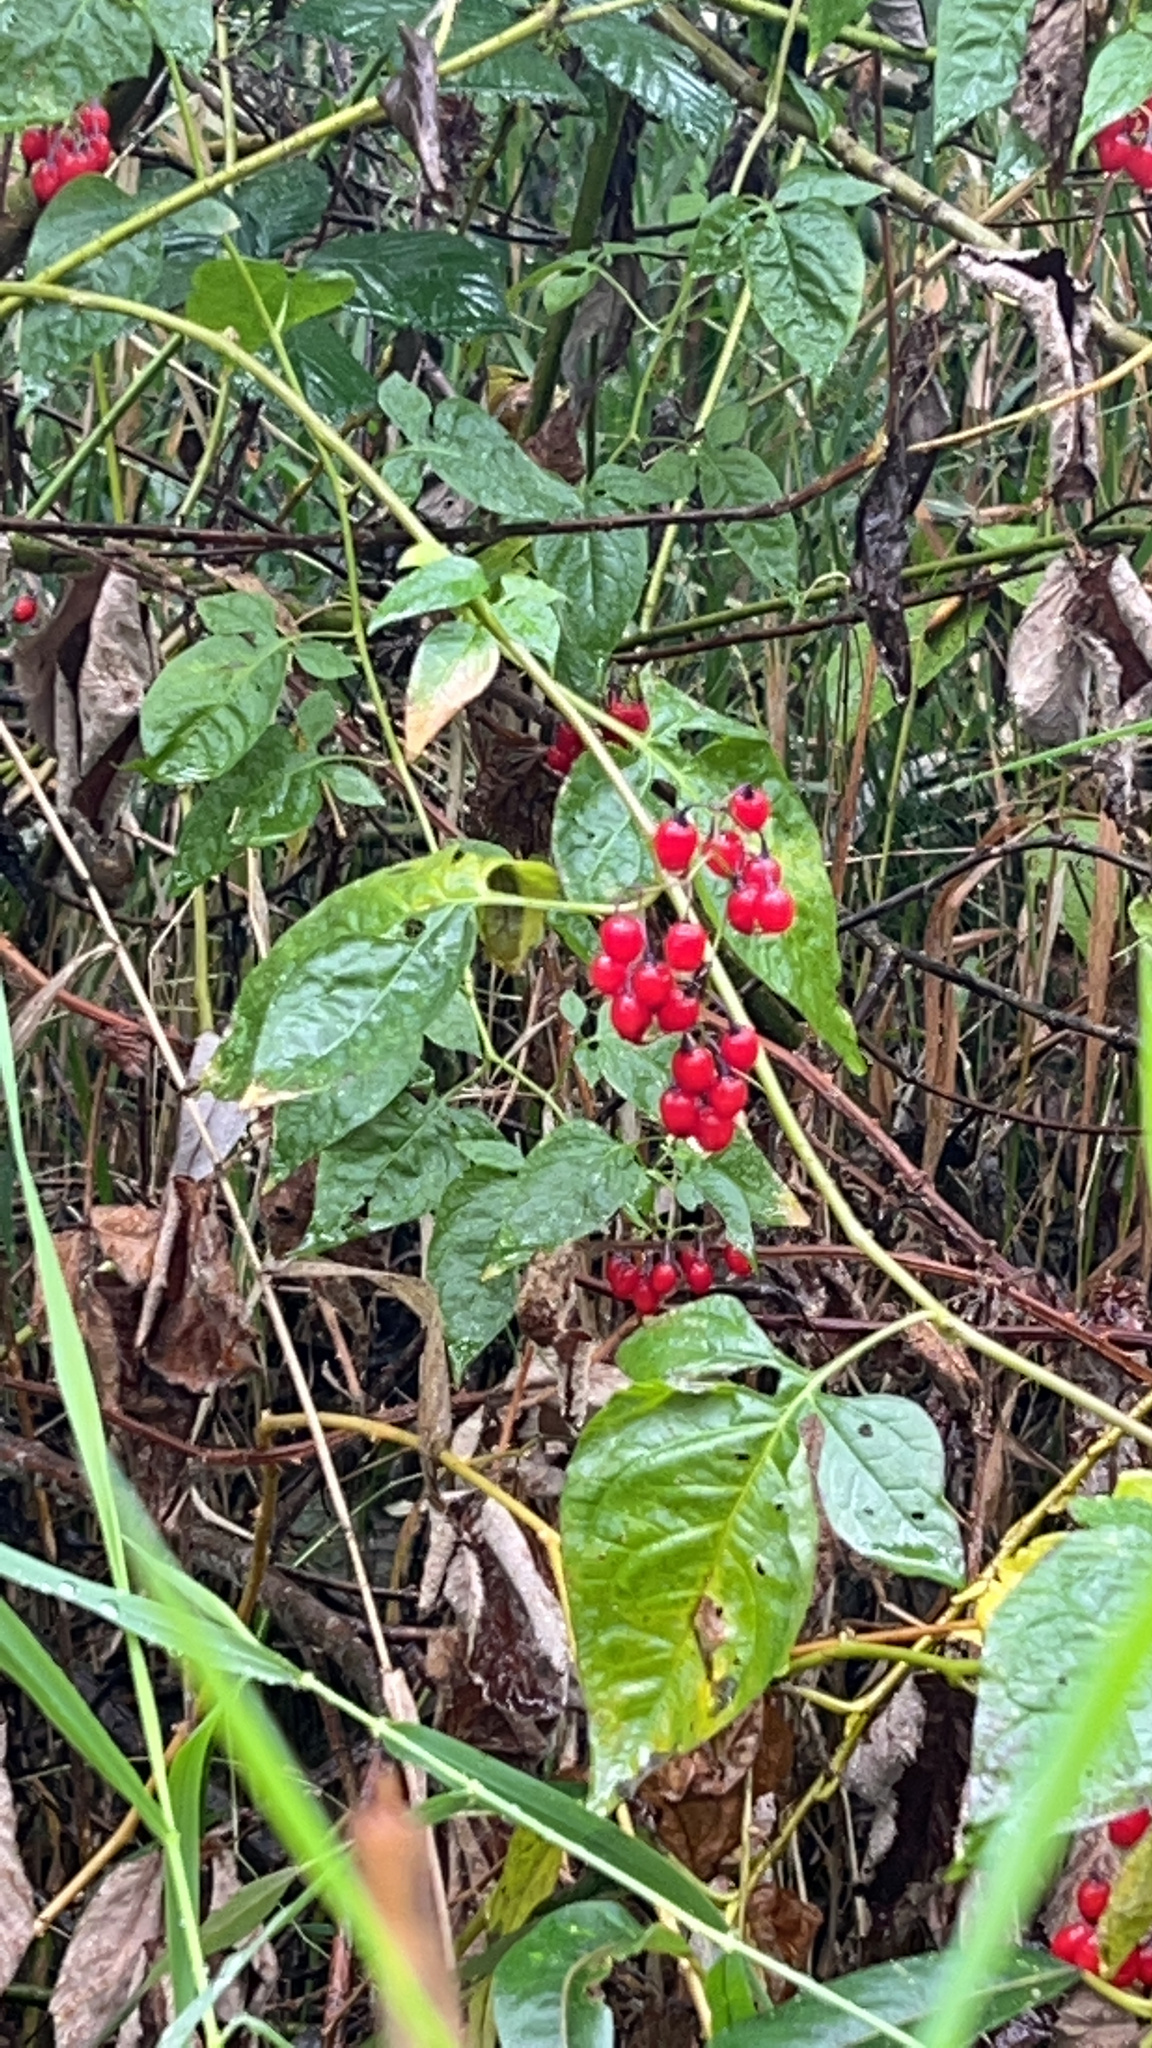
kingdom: Plantae
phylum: Tracheophyta
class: Magnoliopsida
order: Solanales
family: Solanaceae
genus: Solanum
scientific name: Solanum dulcamara
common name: Climbing nightshade
